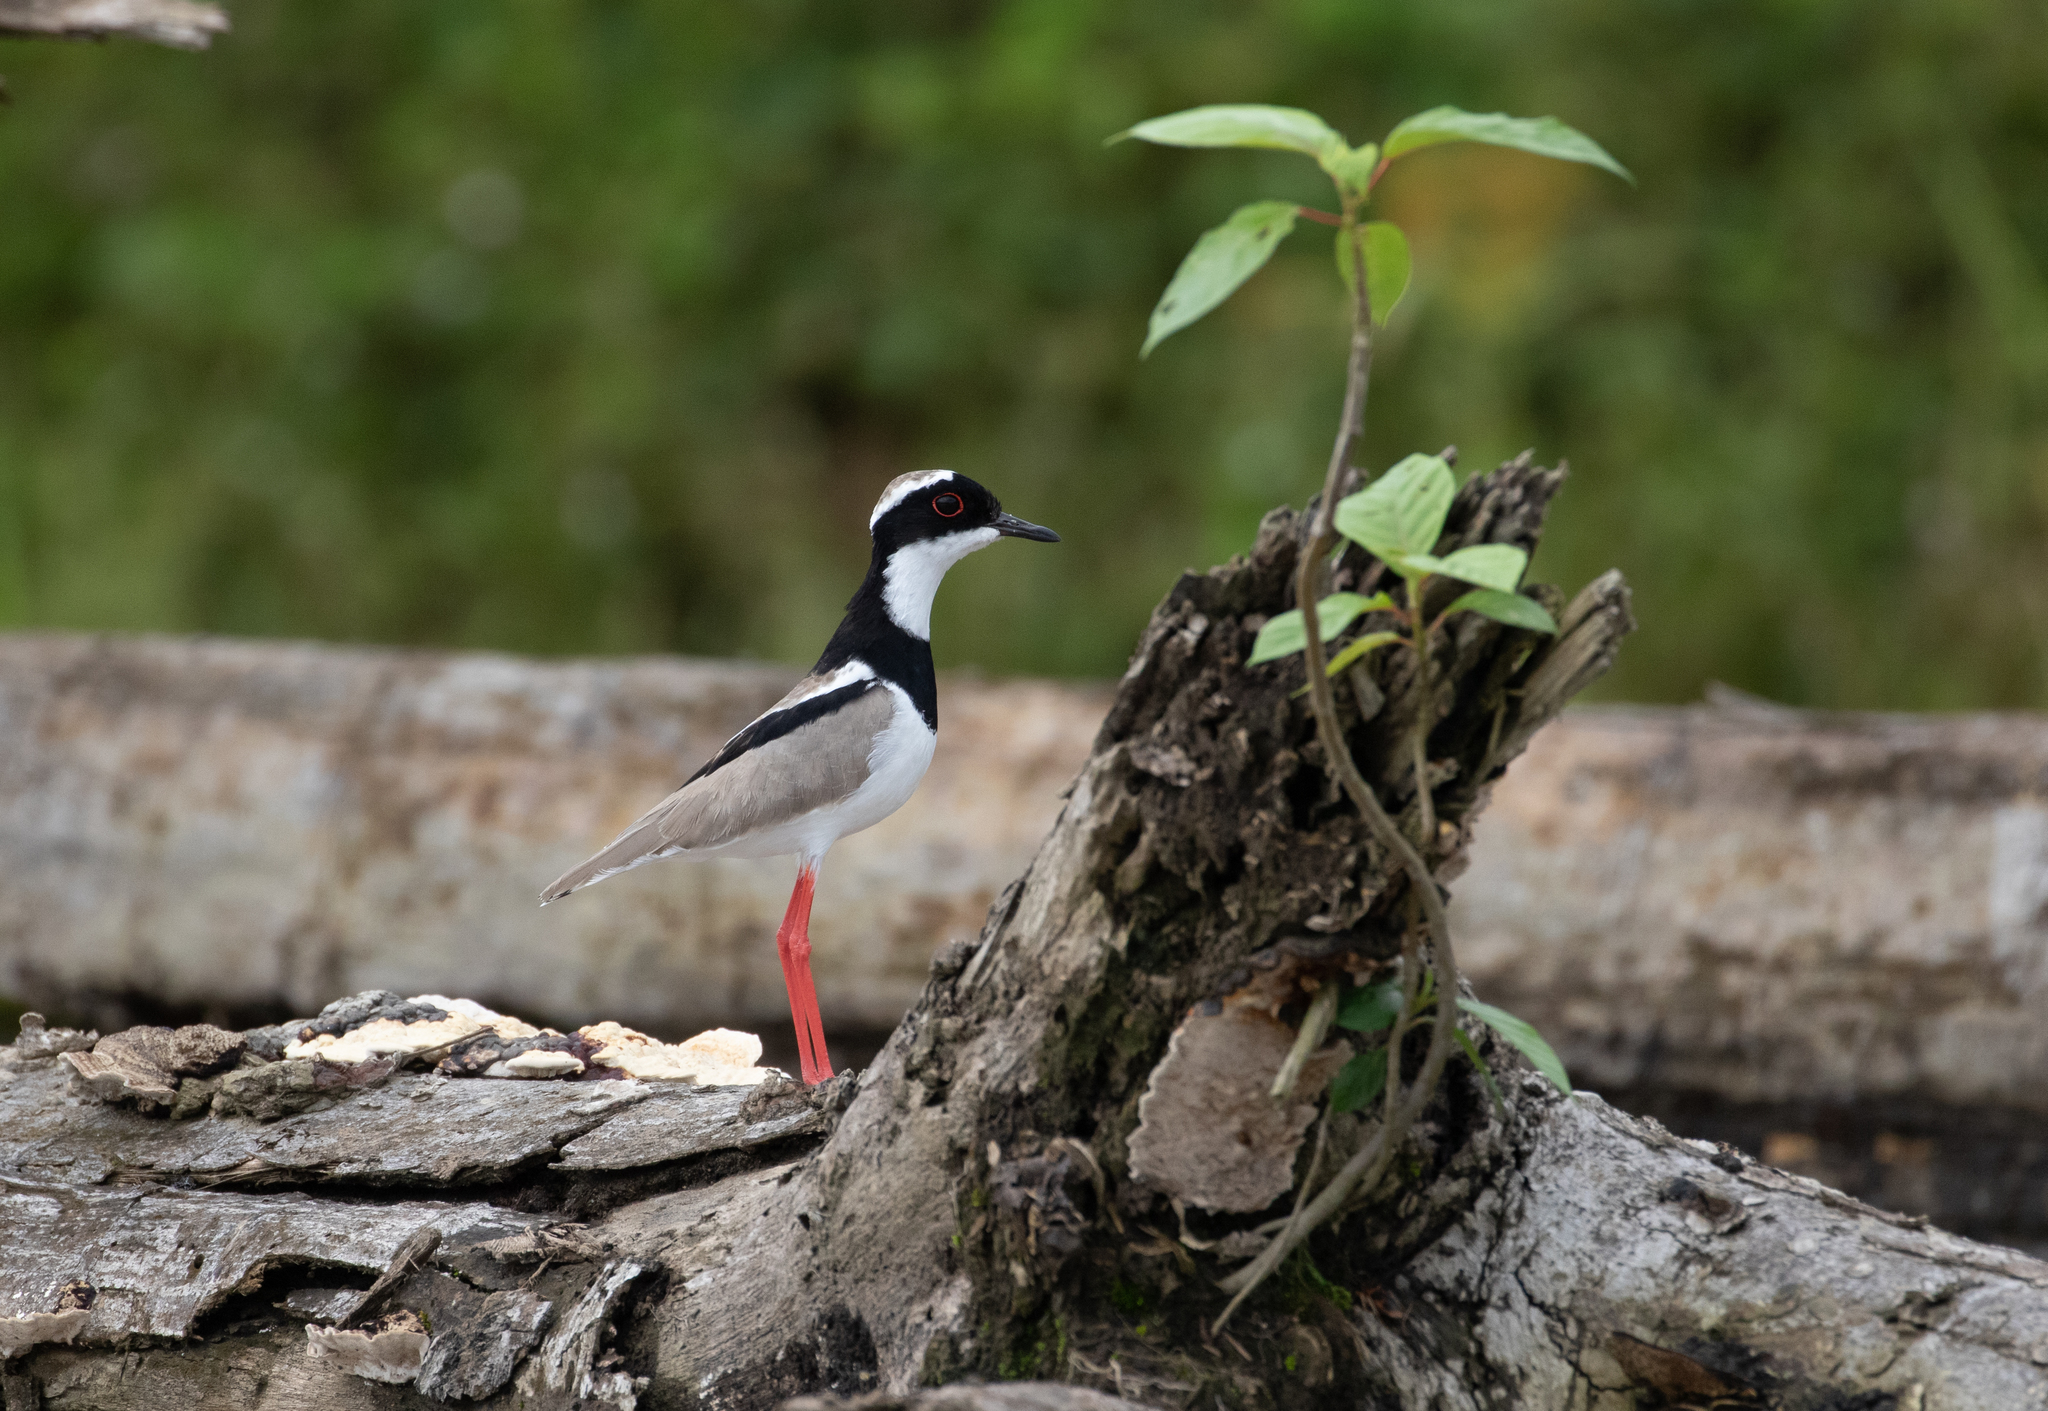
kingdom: Animalia
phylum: Chordata
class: Aves
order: Charadriiformes
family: Charadriidae
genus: Hoploxypterus
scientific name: Hoploxypterus cayanus
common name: Pied plover
